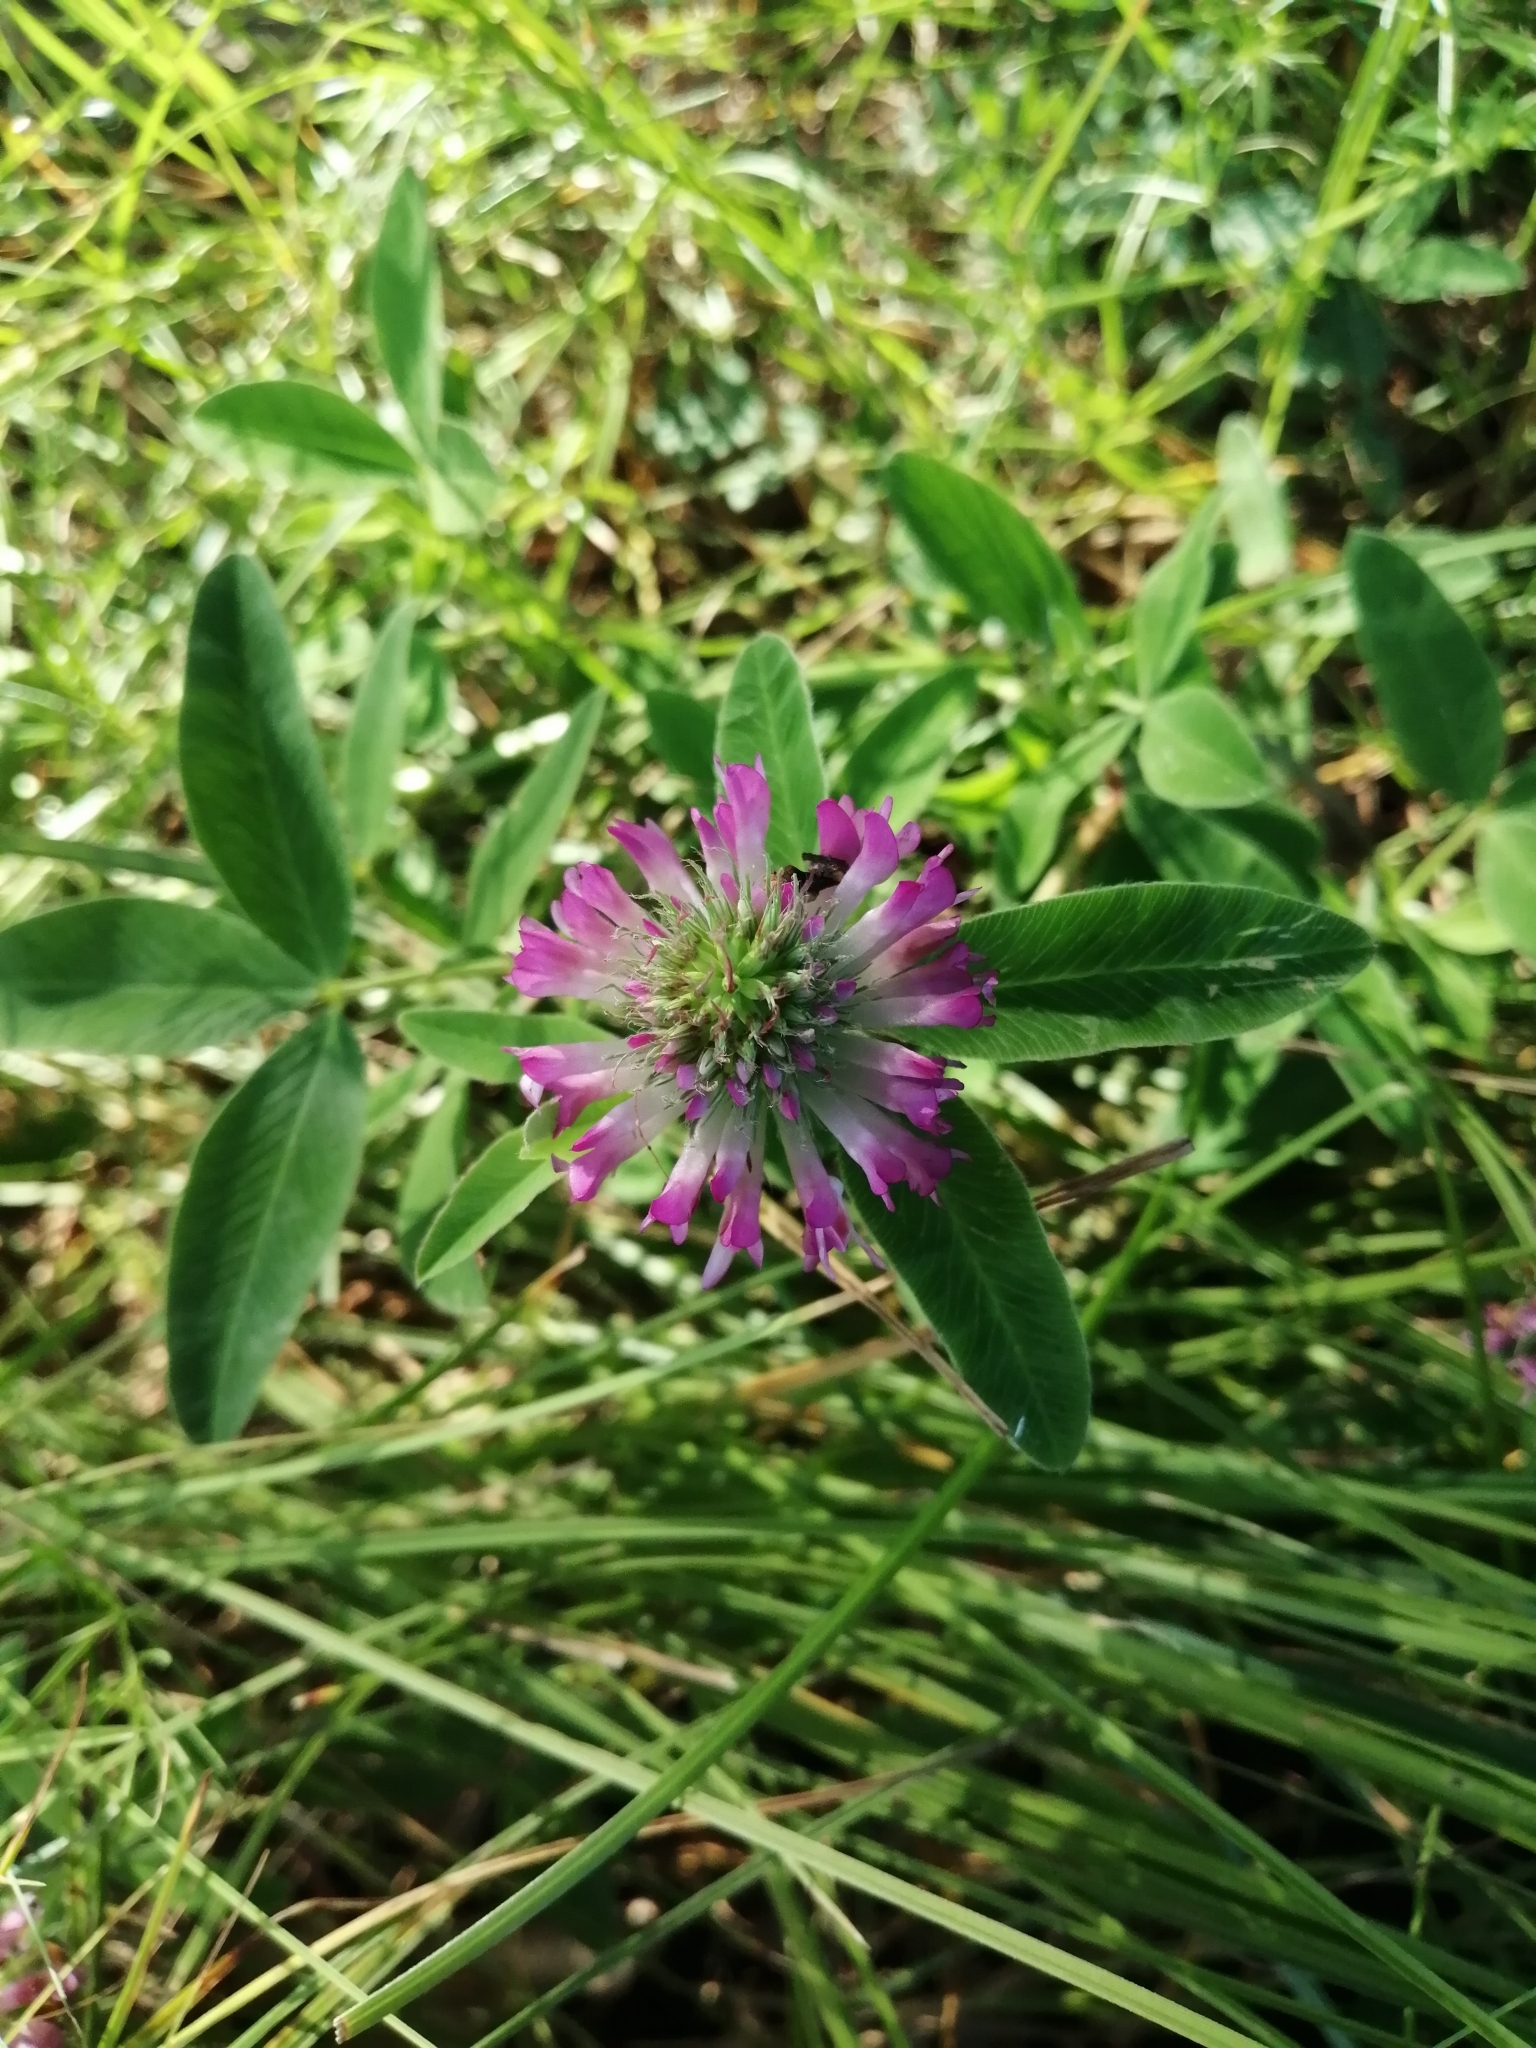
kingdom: Plantae
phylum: Tracheophyta
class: Magnoliopsida
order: Fabales
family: Fabaceae
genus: Trifolium
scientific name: Trifolium medium
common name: Zigzag clover
